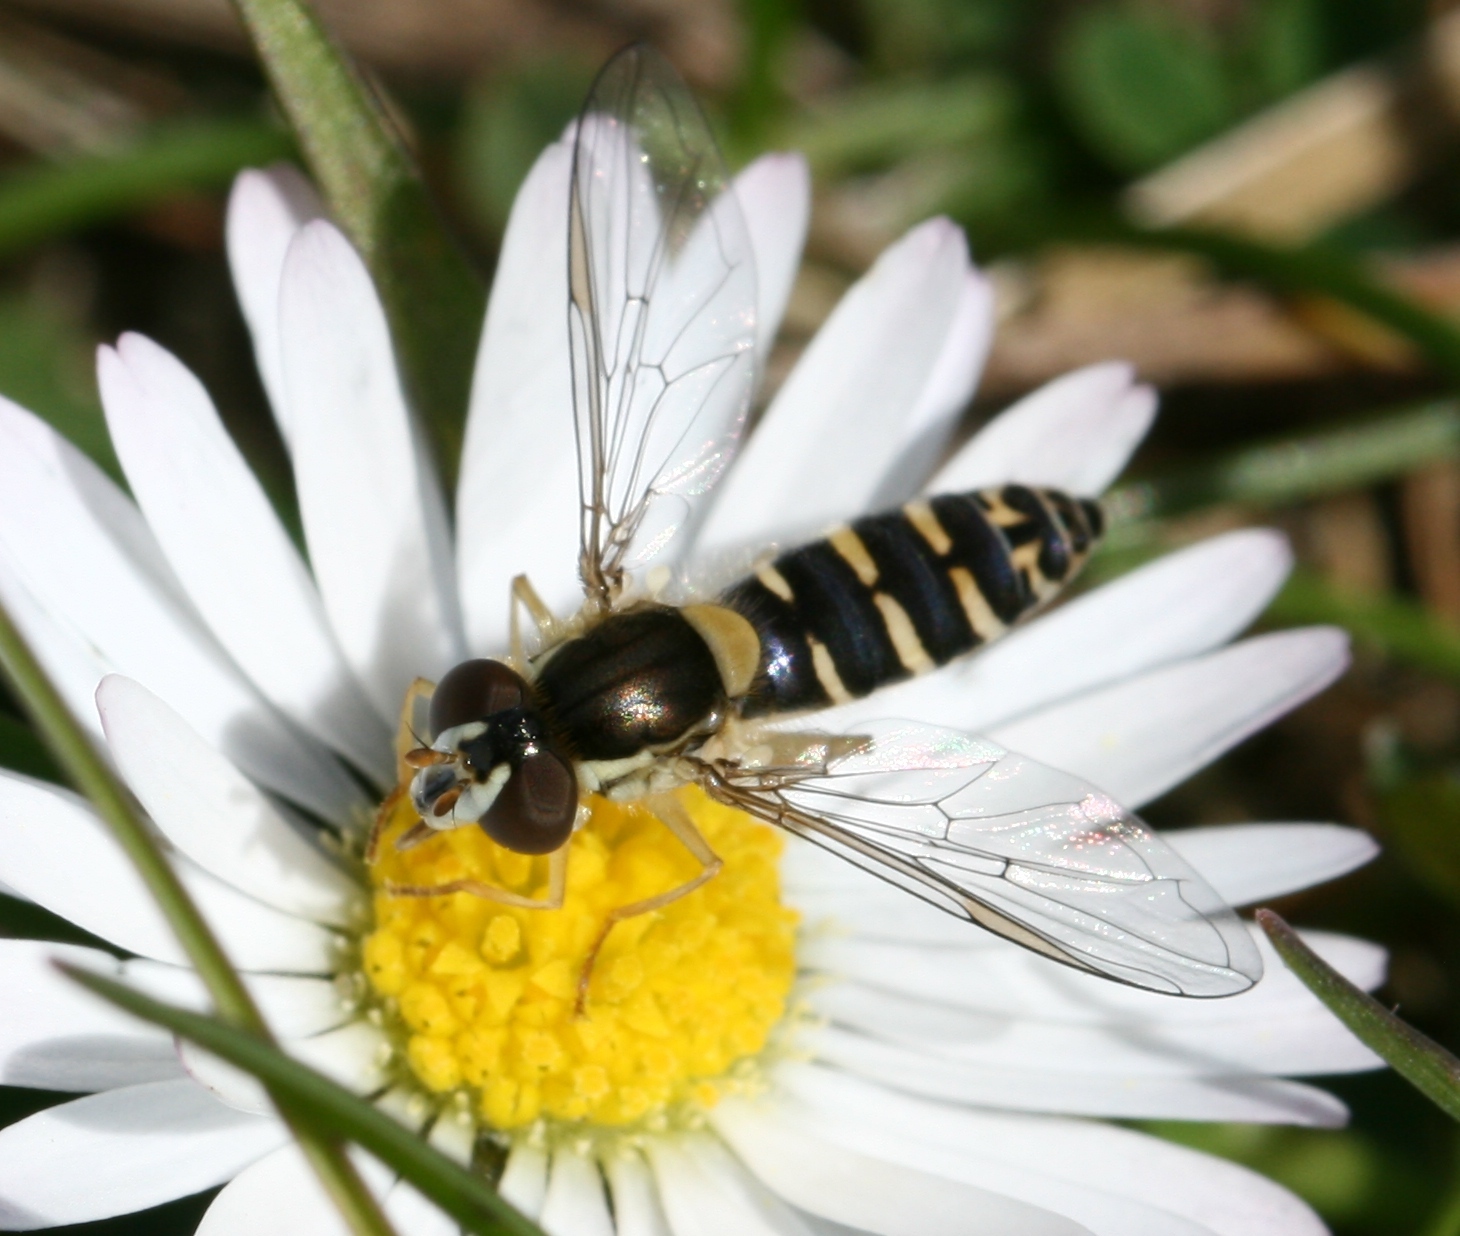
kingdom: Animalia
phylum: Arthropoda
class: Insecta
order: Diptera
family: Syrphidae
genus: Sphaerophoria
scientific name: Sphaerophoria
